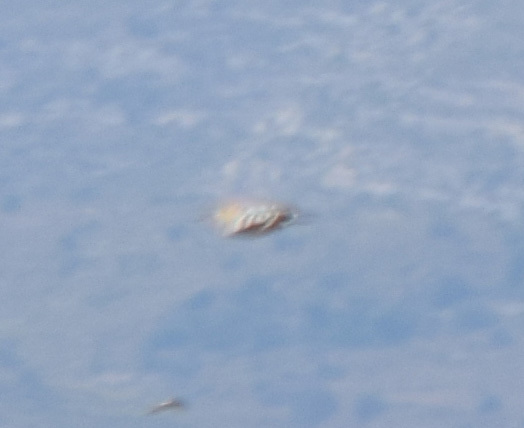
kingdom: Animalia
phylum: Chordata
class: Aves
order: Bucerotiformes
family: Upupidae
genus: Upupa
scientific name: Upupa epops
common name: Eurasian hoopoe
